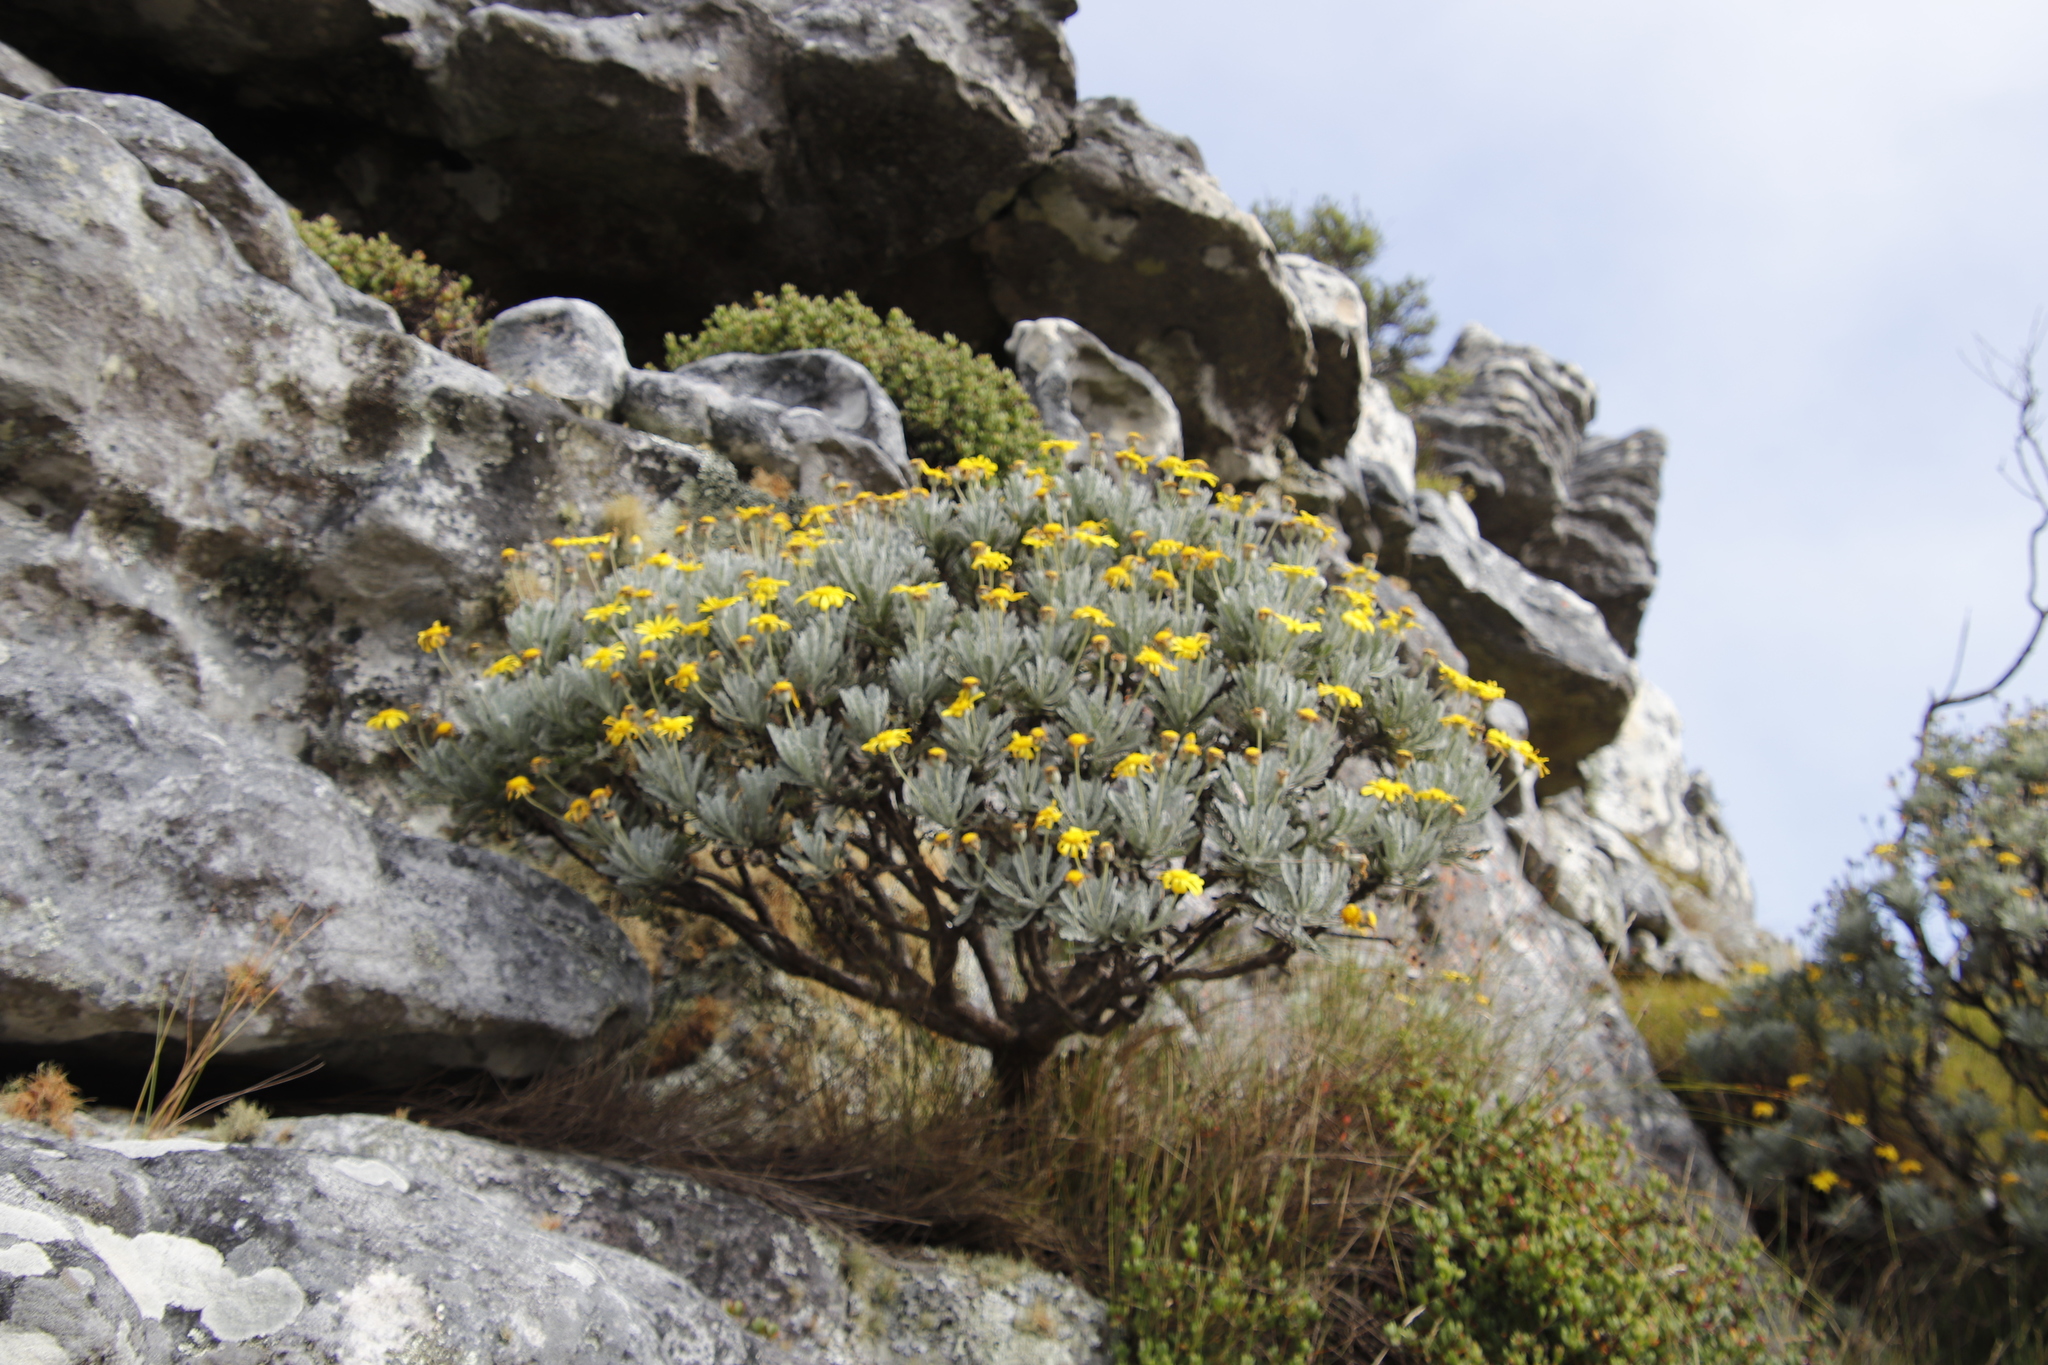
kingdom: Plantae
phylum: Tracheophyta
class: Magnoliopsida
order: Asterales
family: Asteraceae
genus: Euryops
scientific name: Euryops pectinatus
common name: Gray-leaf euryops
